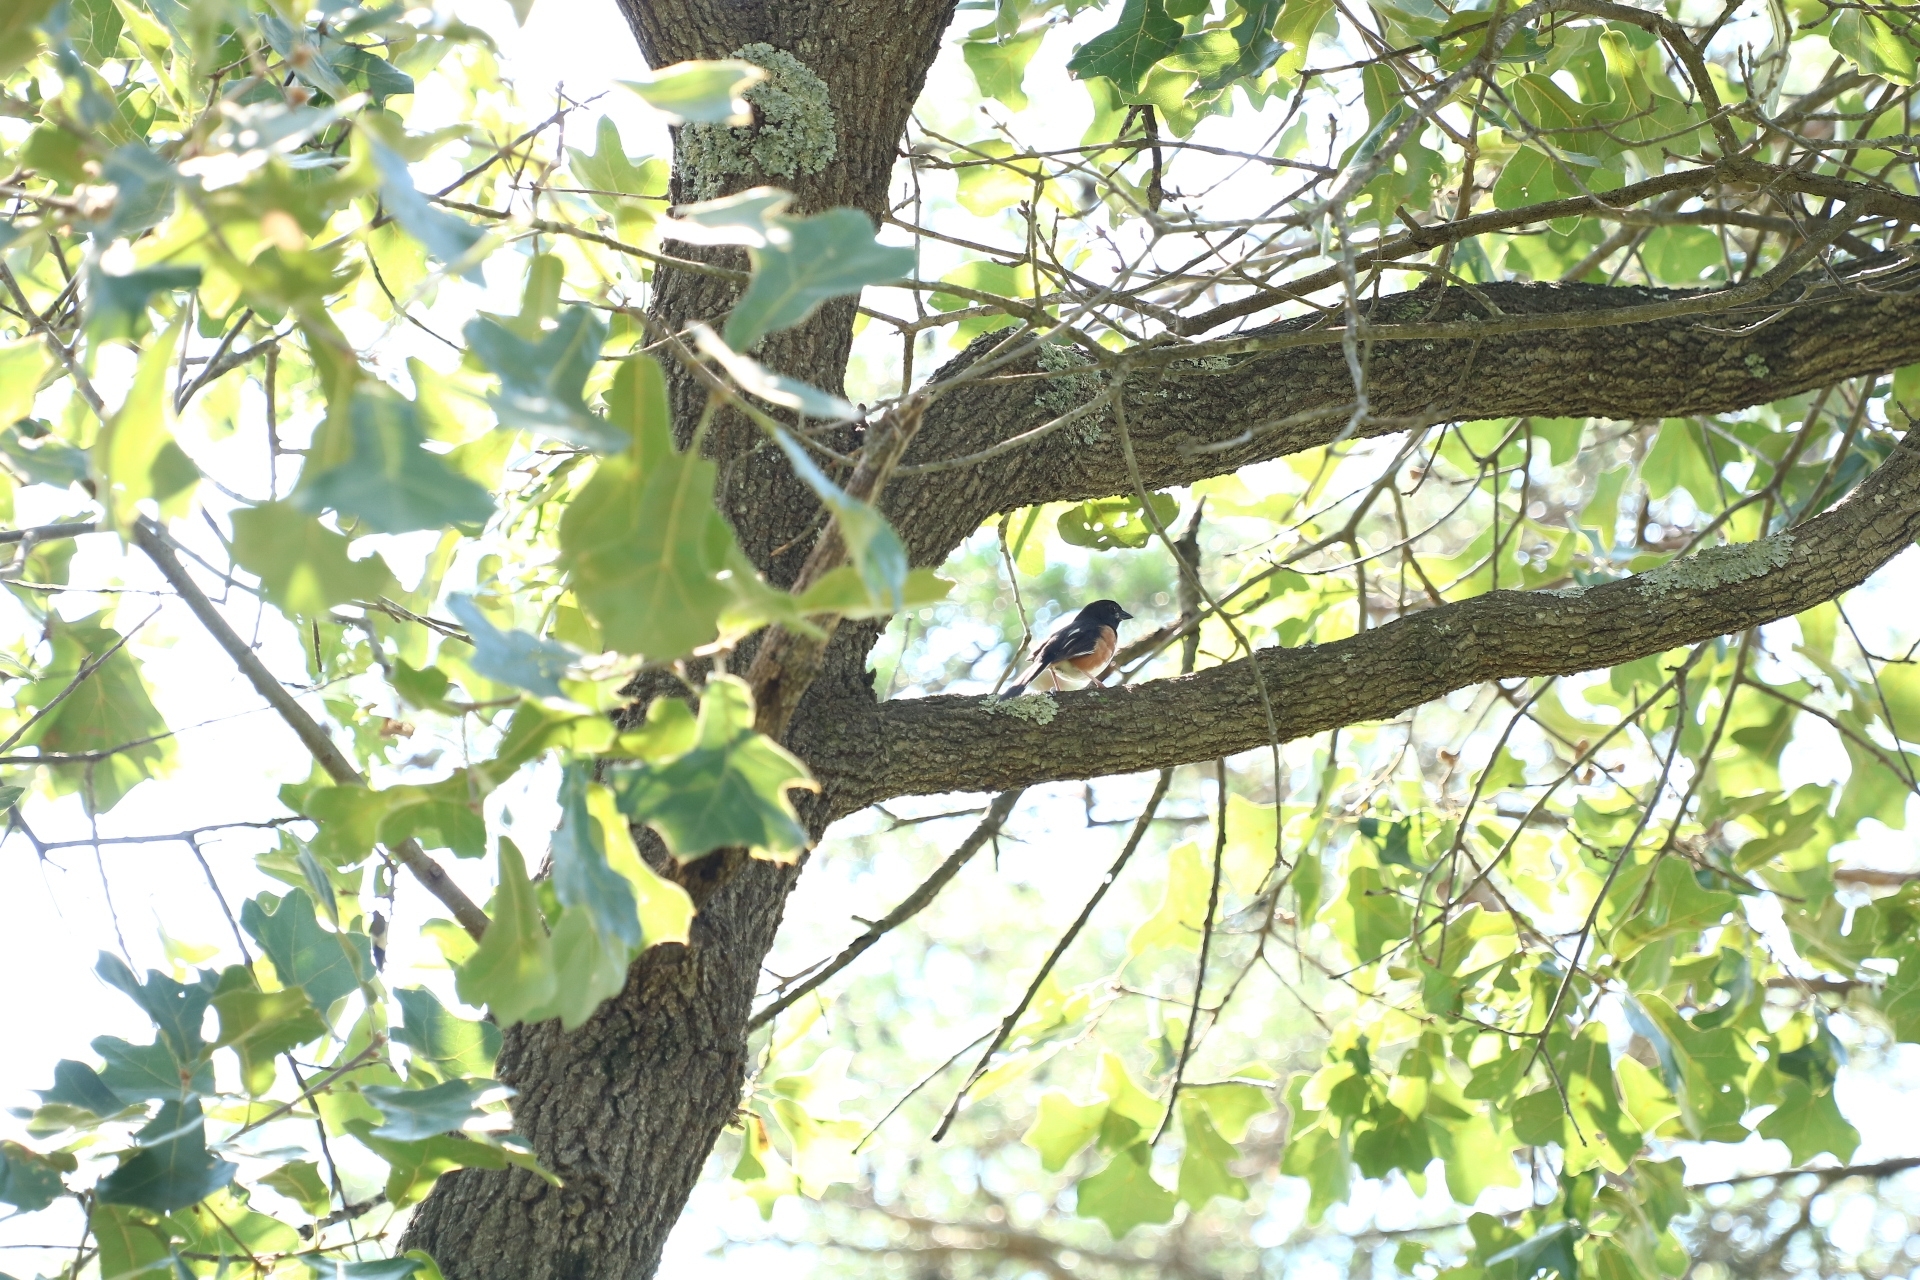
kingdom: Animalia
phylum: Chordata
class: Aves
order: Passeriformes
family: Passerellidae
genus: Pipilo
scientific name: Pipilo erythrophthalmus
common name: Eastern towhee
